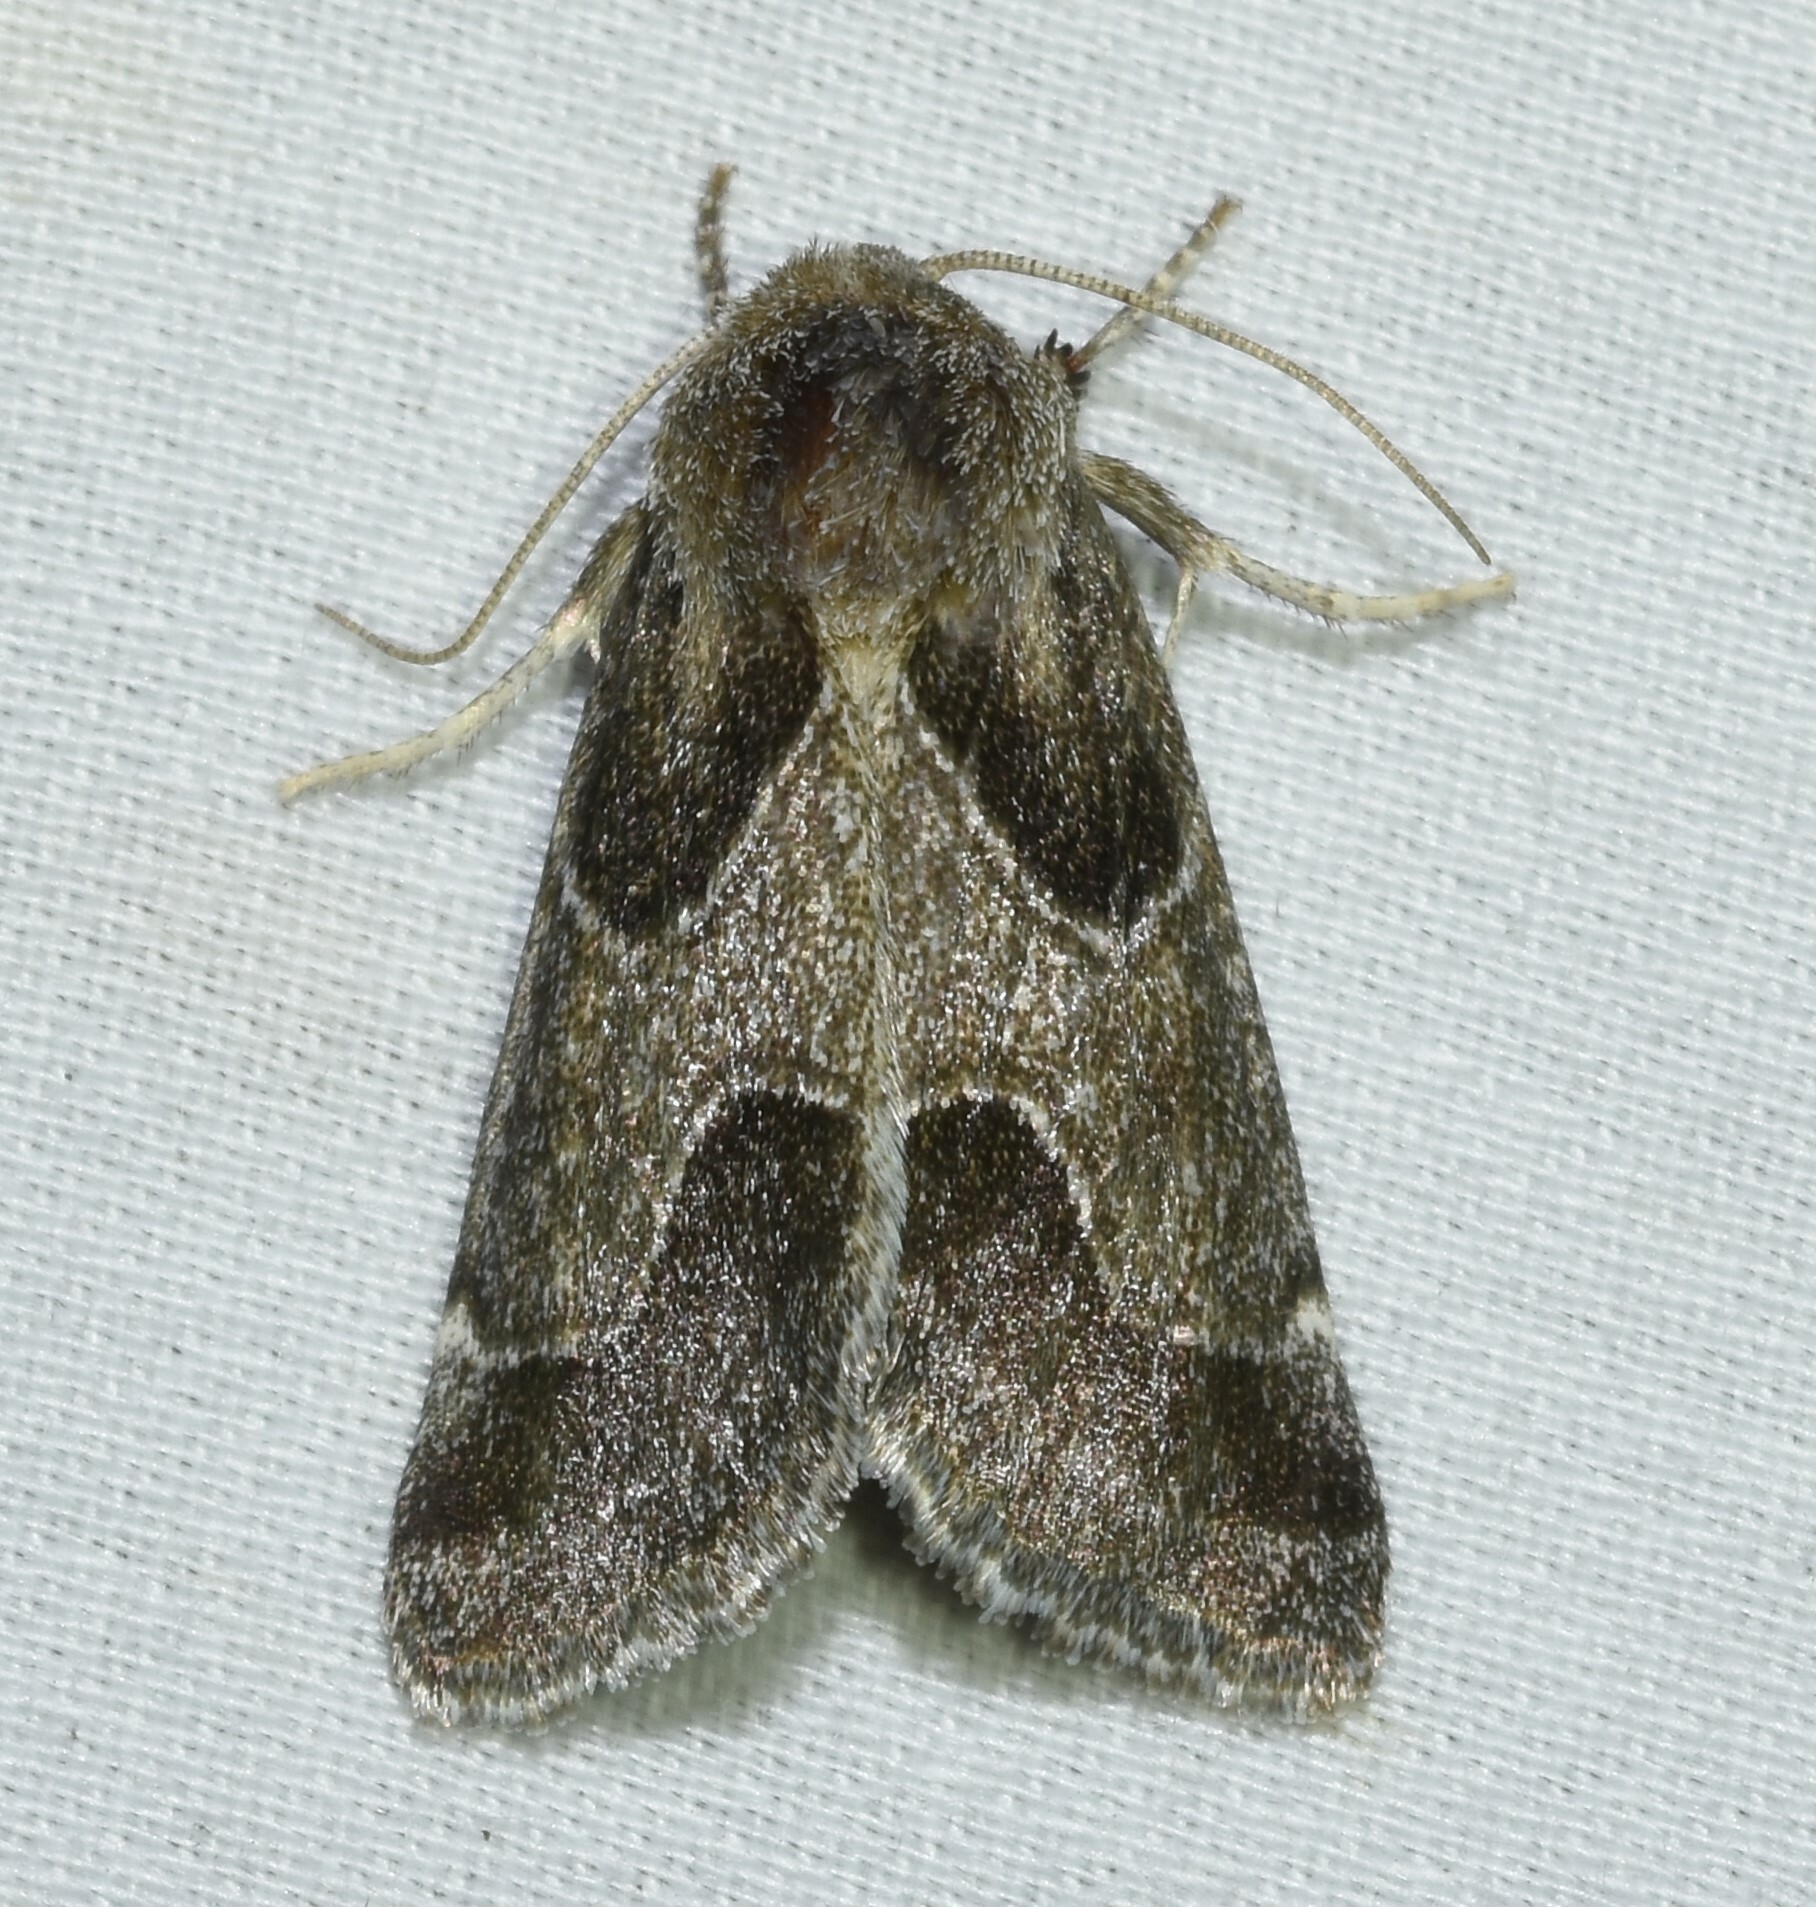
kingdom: Animalia
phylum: Arthropoda
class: Insecta
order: Lepidoptera
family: Noctuidae
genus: Schinia
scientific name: Schinia rivulosa
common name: Scarce meal-moth
